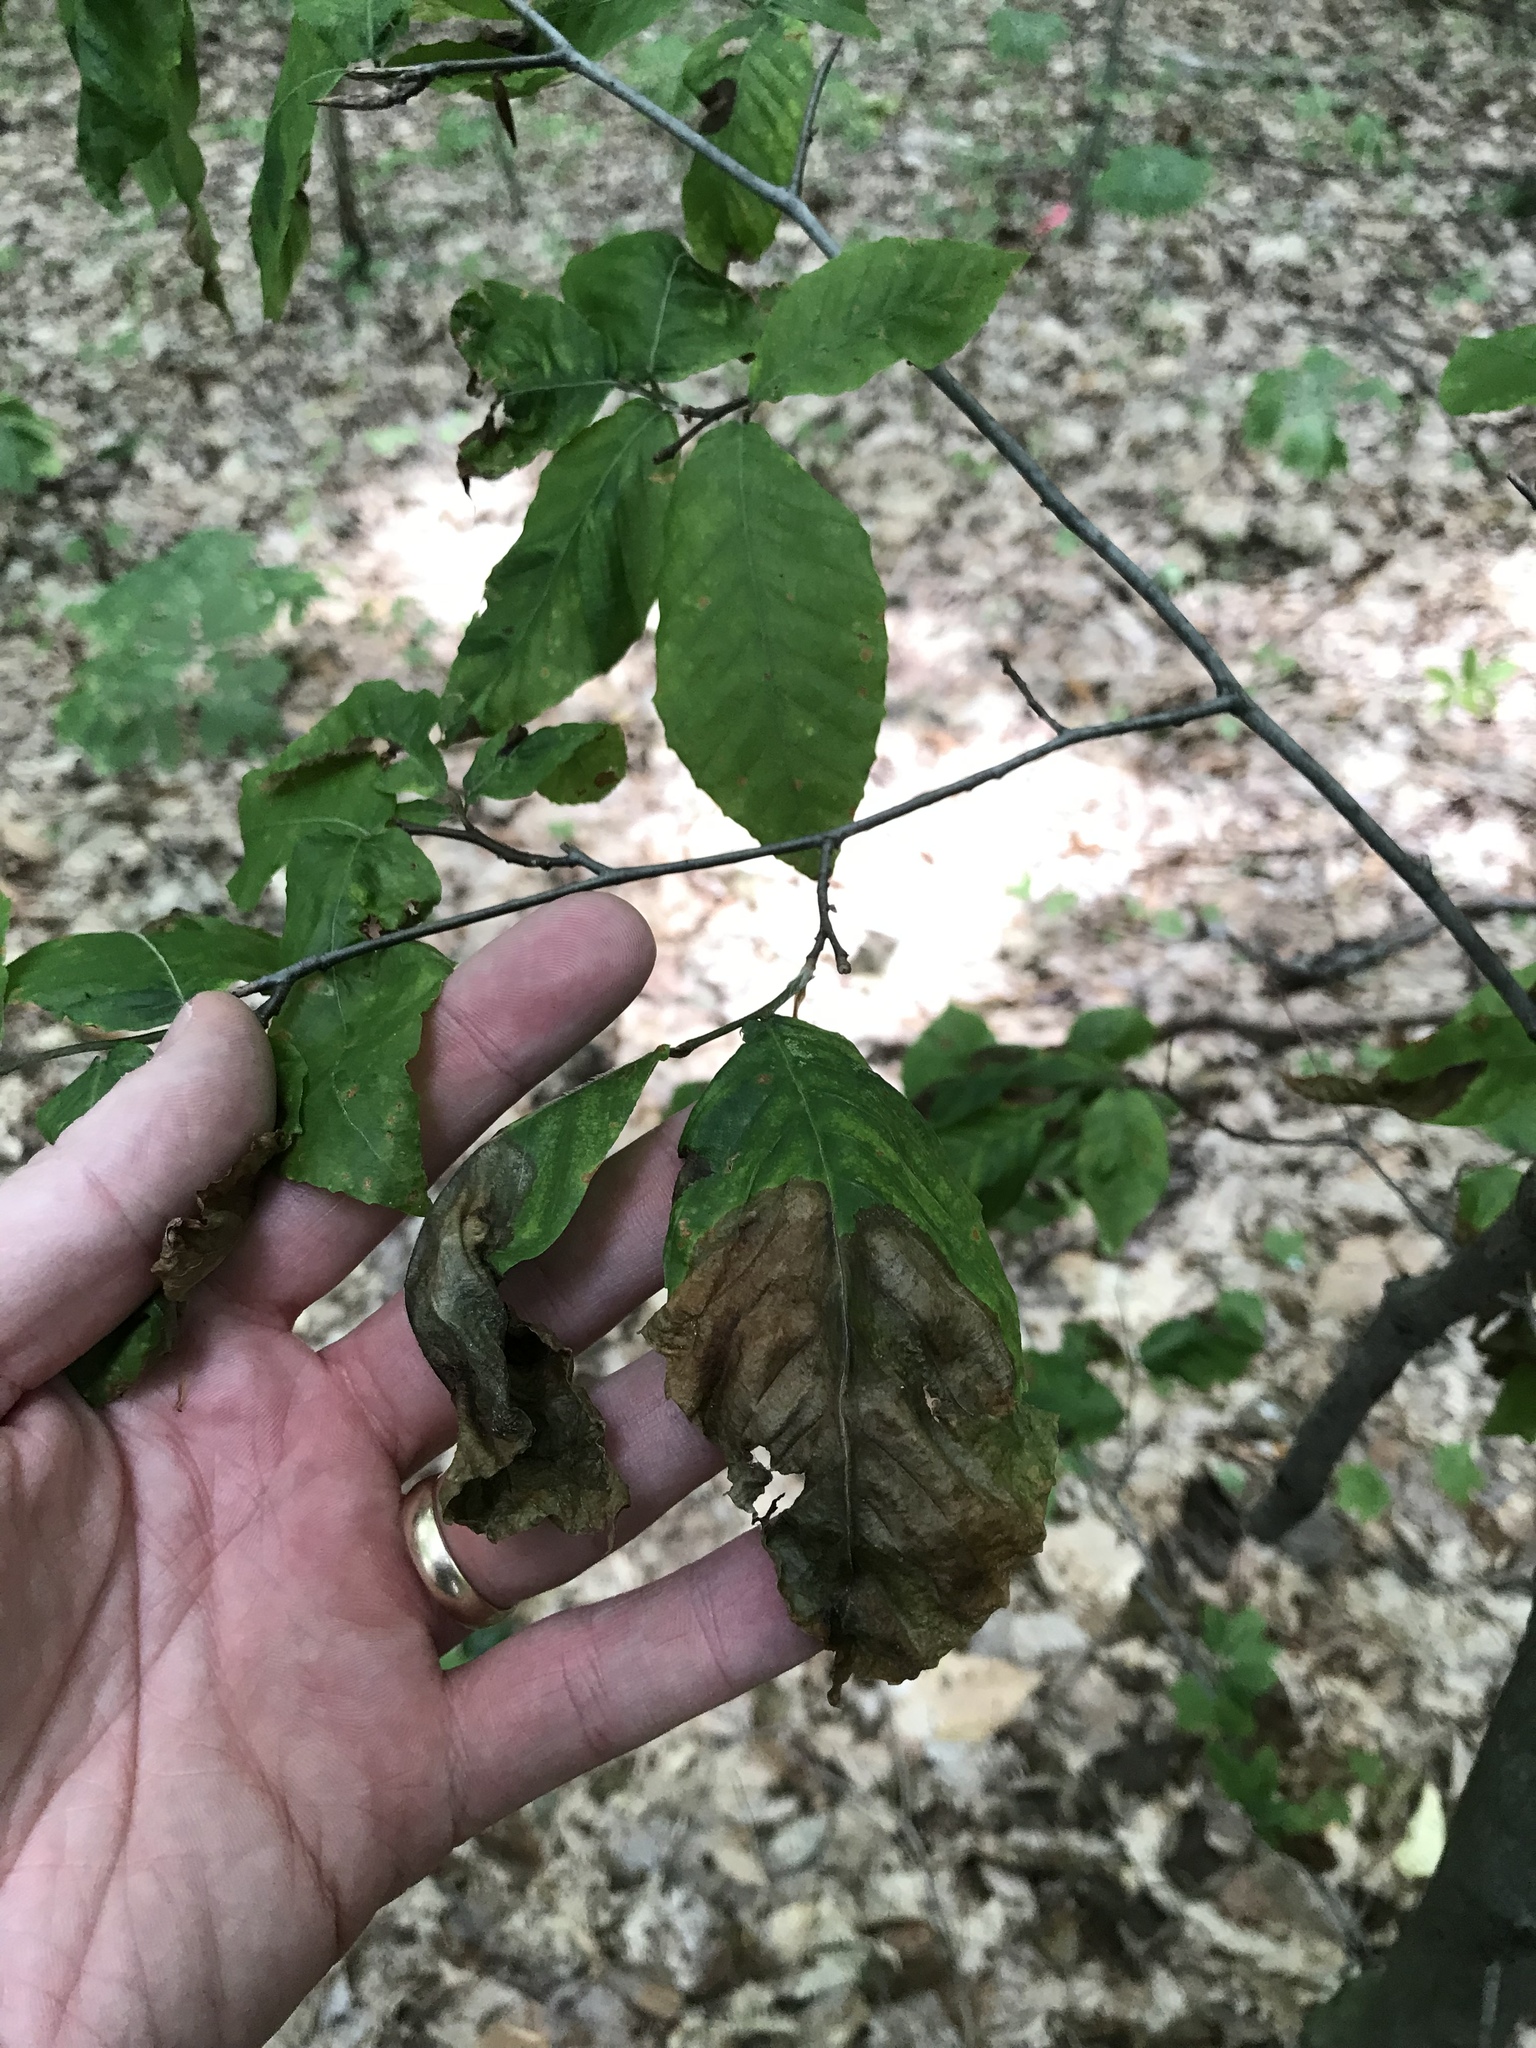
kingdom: Plantae
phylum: Tracheophyta
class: Magnoliopsida
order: Fagales
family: Fagaceae
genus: Fagus
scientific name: Fagus grandifolia
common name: American beech
